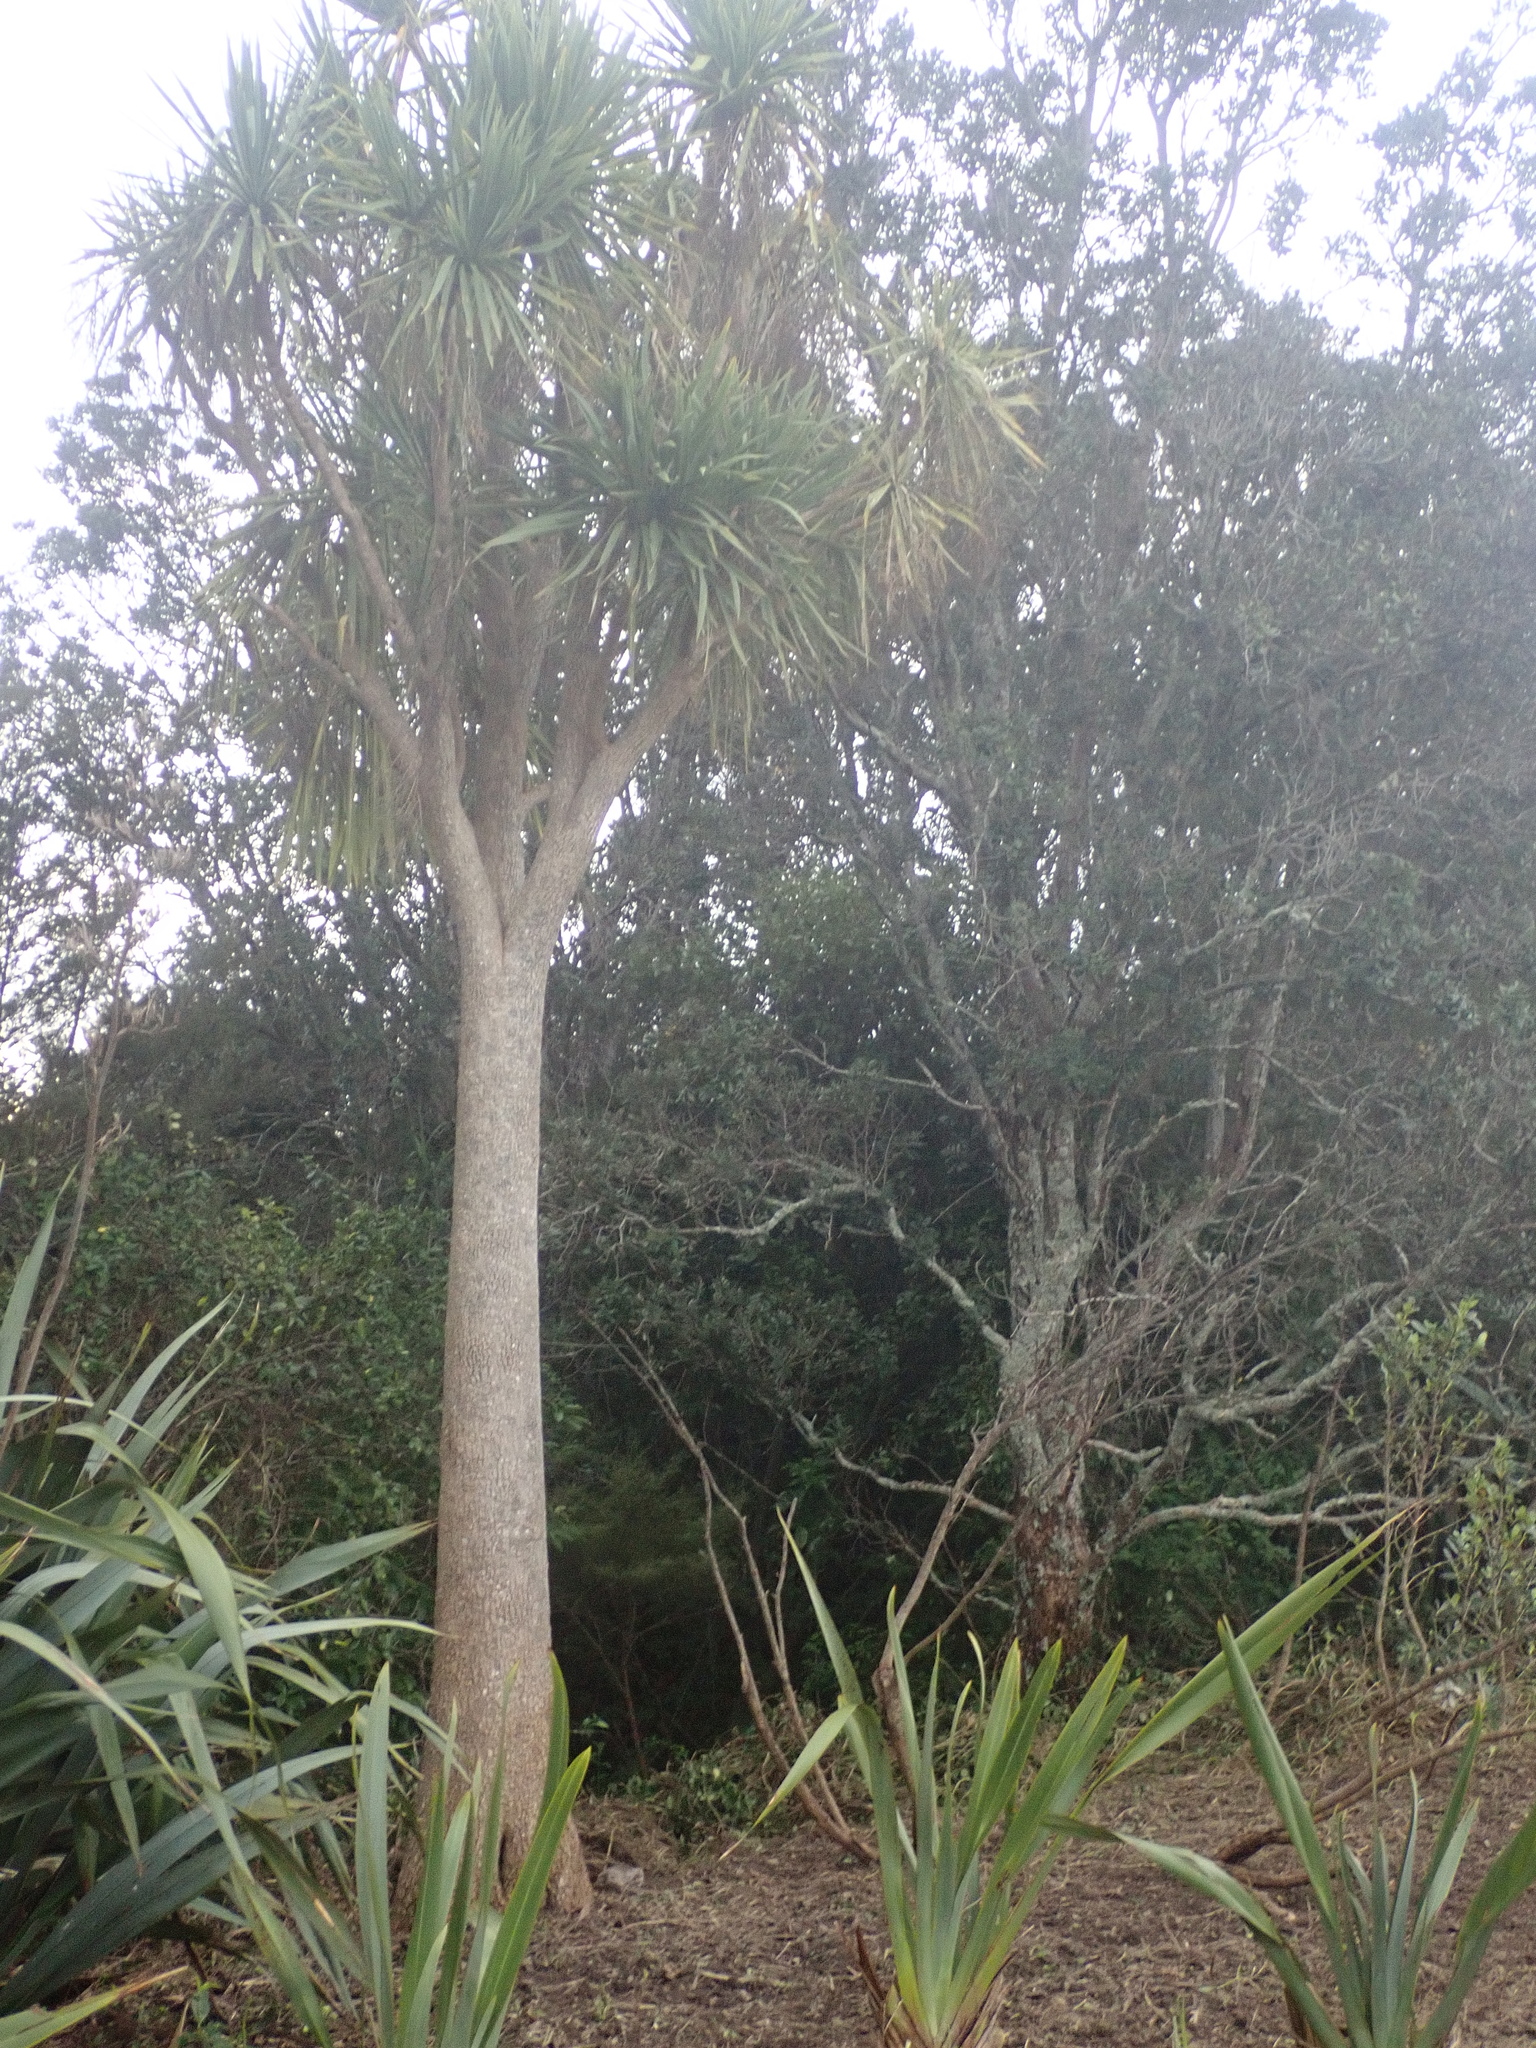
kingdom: Plantae
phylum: Tracheophyta
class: Liliopsida
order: Asparagales
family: Asparagaceae
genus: Cordyline
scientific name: Cordyline australis
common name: Cabbage-palm
